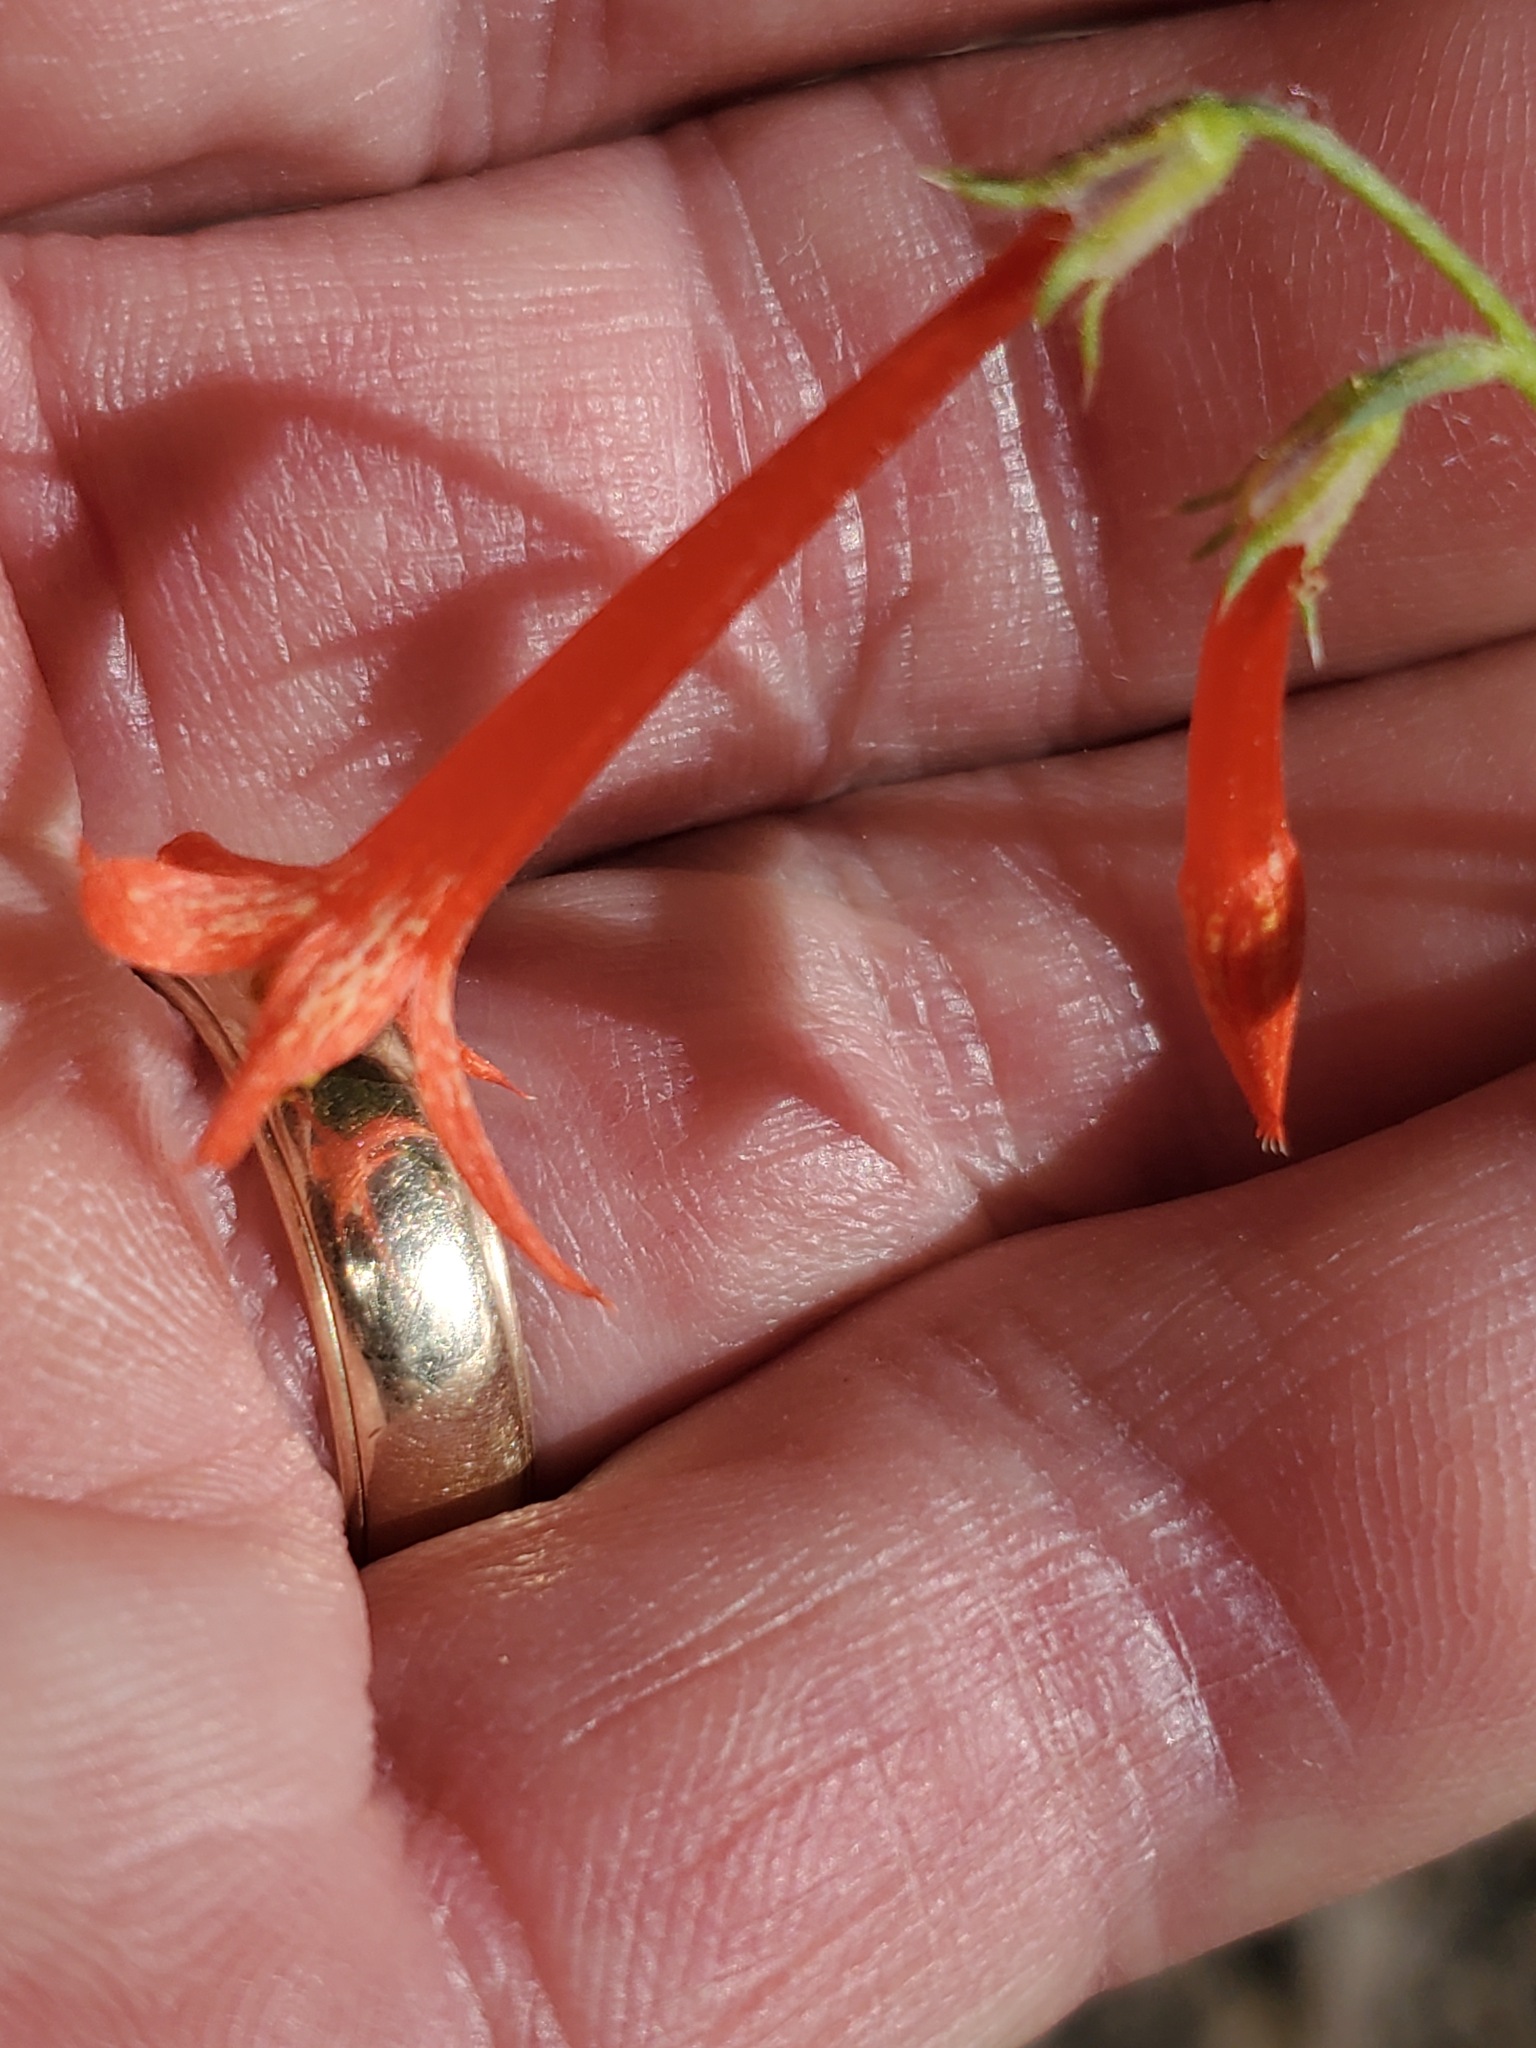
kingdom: Plantae
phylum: Tracheophyta
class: Magnoliopsida
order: Ericales
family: Polemoniaceae
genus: Ipomopsis
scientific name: Ipomopsis aggregata
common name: Scarlet gilia
